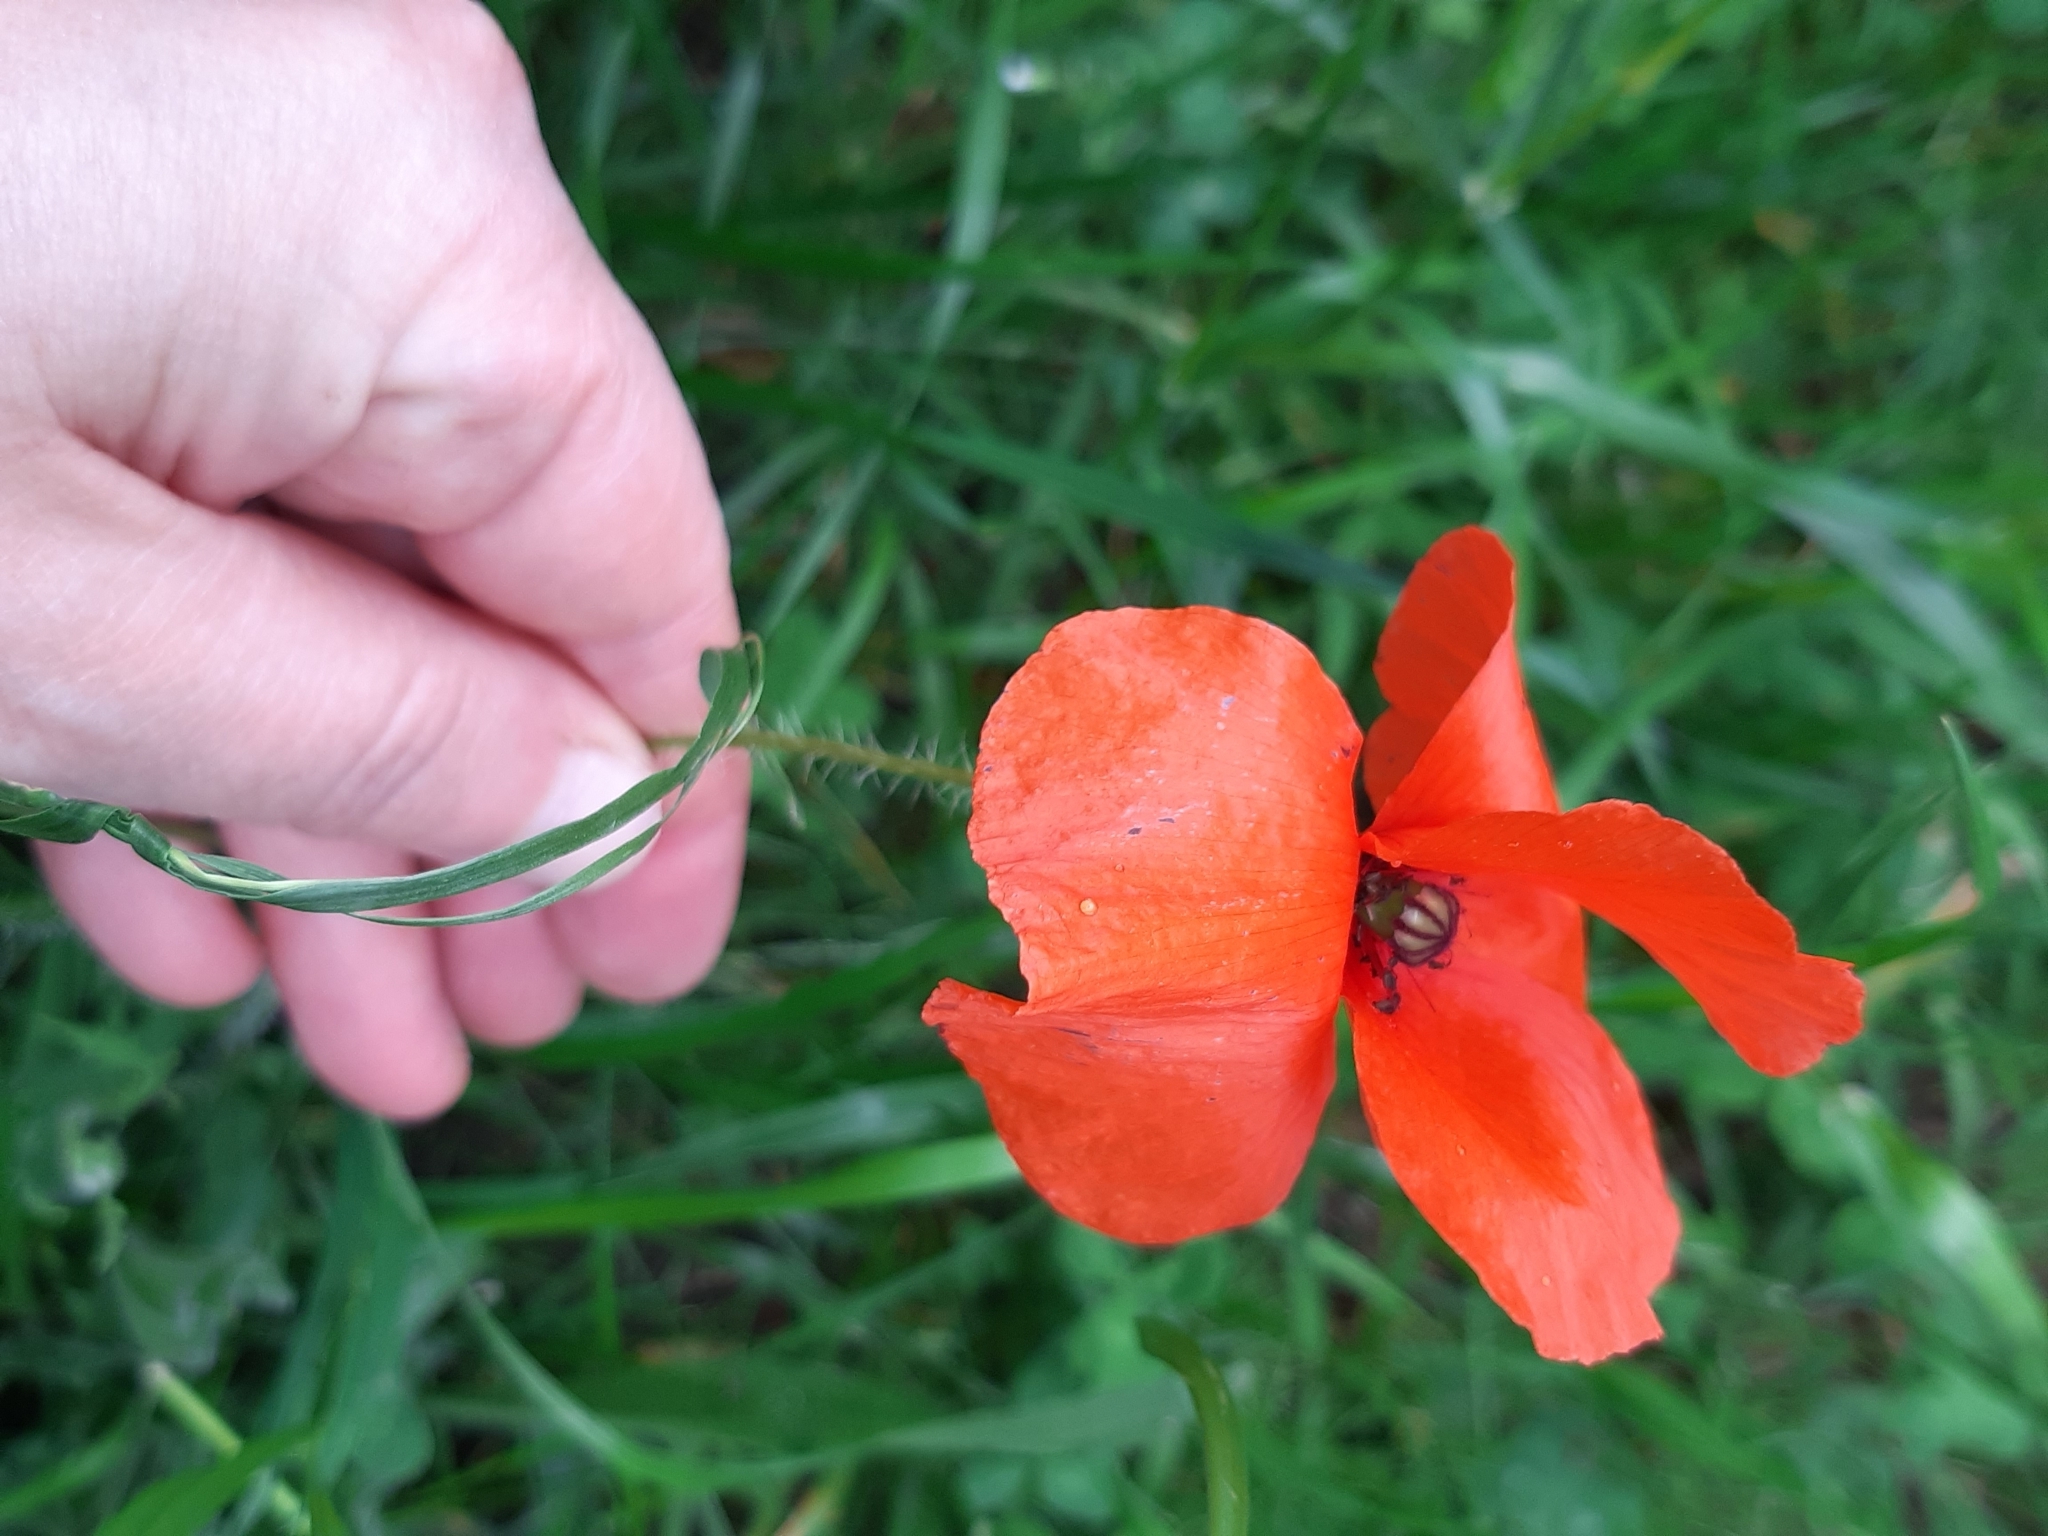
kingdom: Plantae
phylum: Tracheophyta
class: Magnoliopsida
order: Ranunculales
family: Papaveraceae
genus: Papaver
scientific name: Papaver rhoeas
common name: Corn poppy
